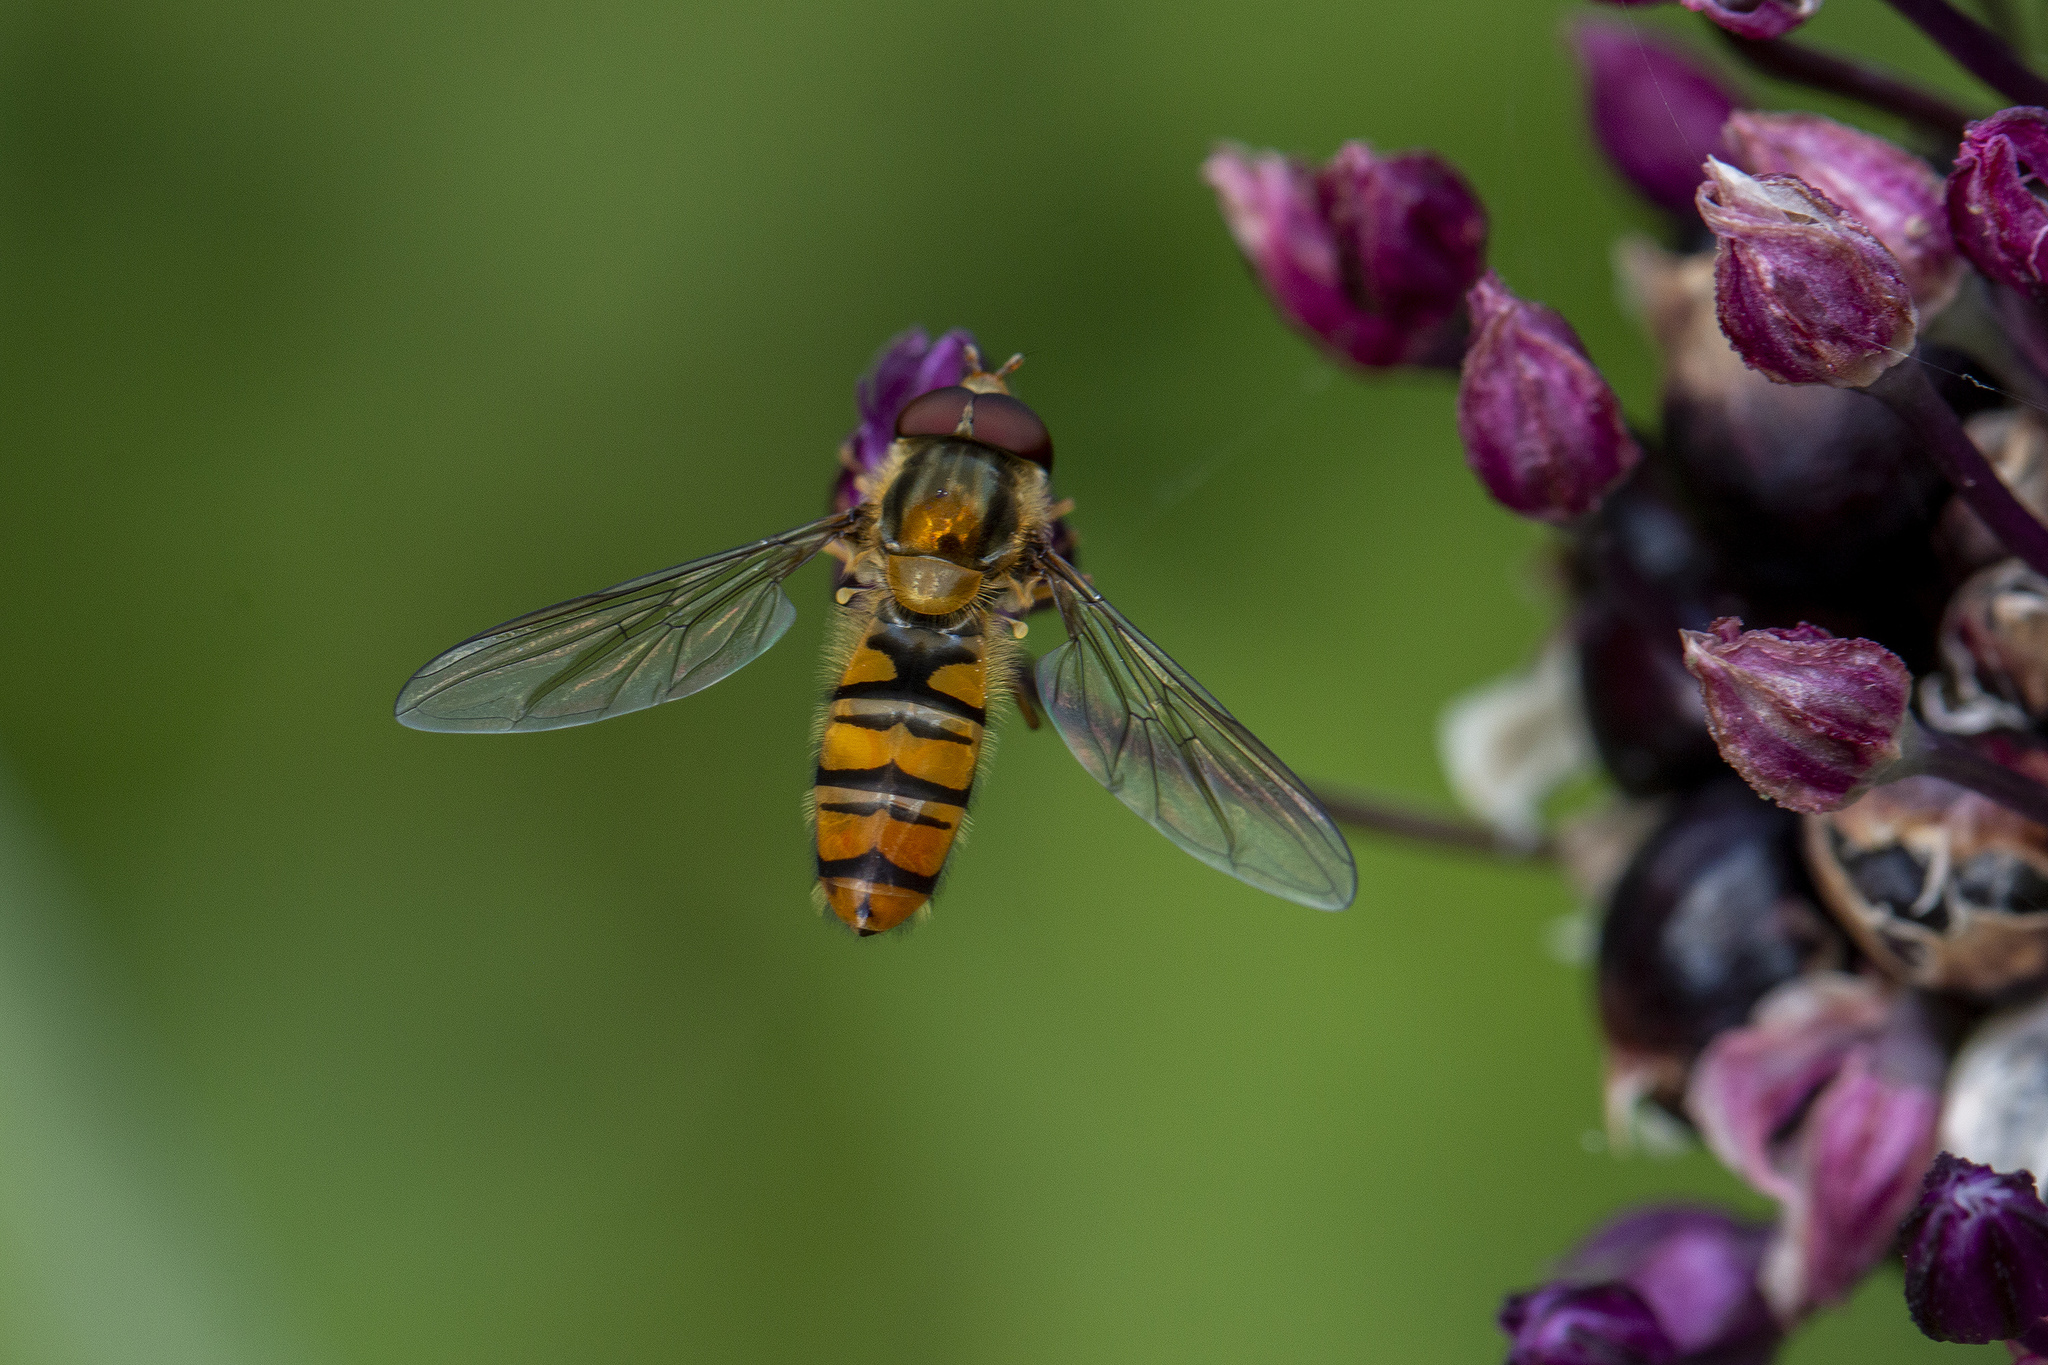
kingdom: Animalia
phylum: Arthropoda
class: Insecta
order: Diptera
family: Syrphidae
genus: Episyrphus
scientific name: Episyrphus balteatus
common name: Marmalade hoverfly
